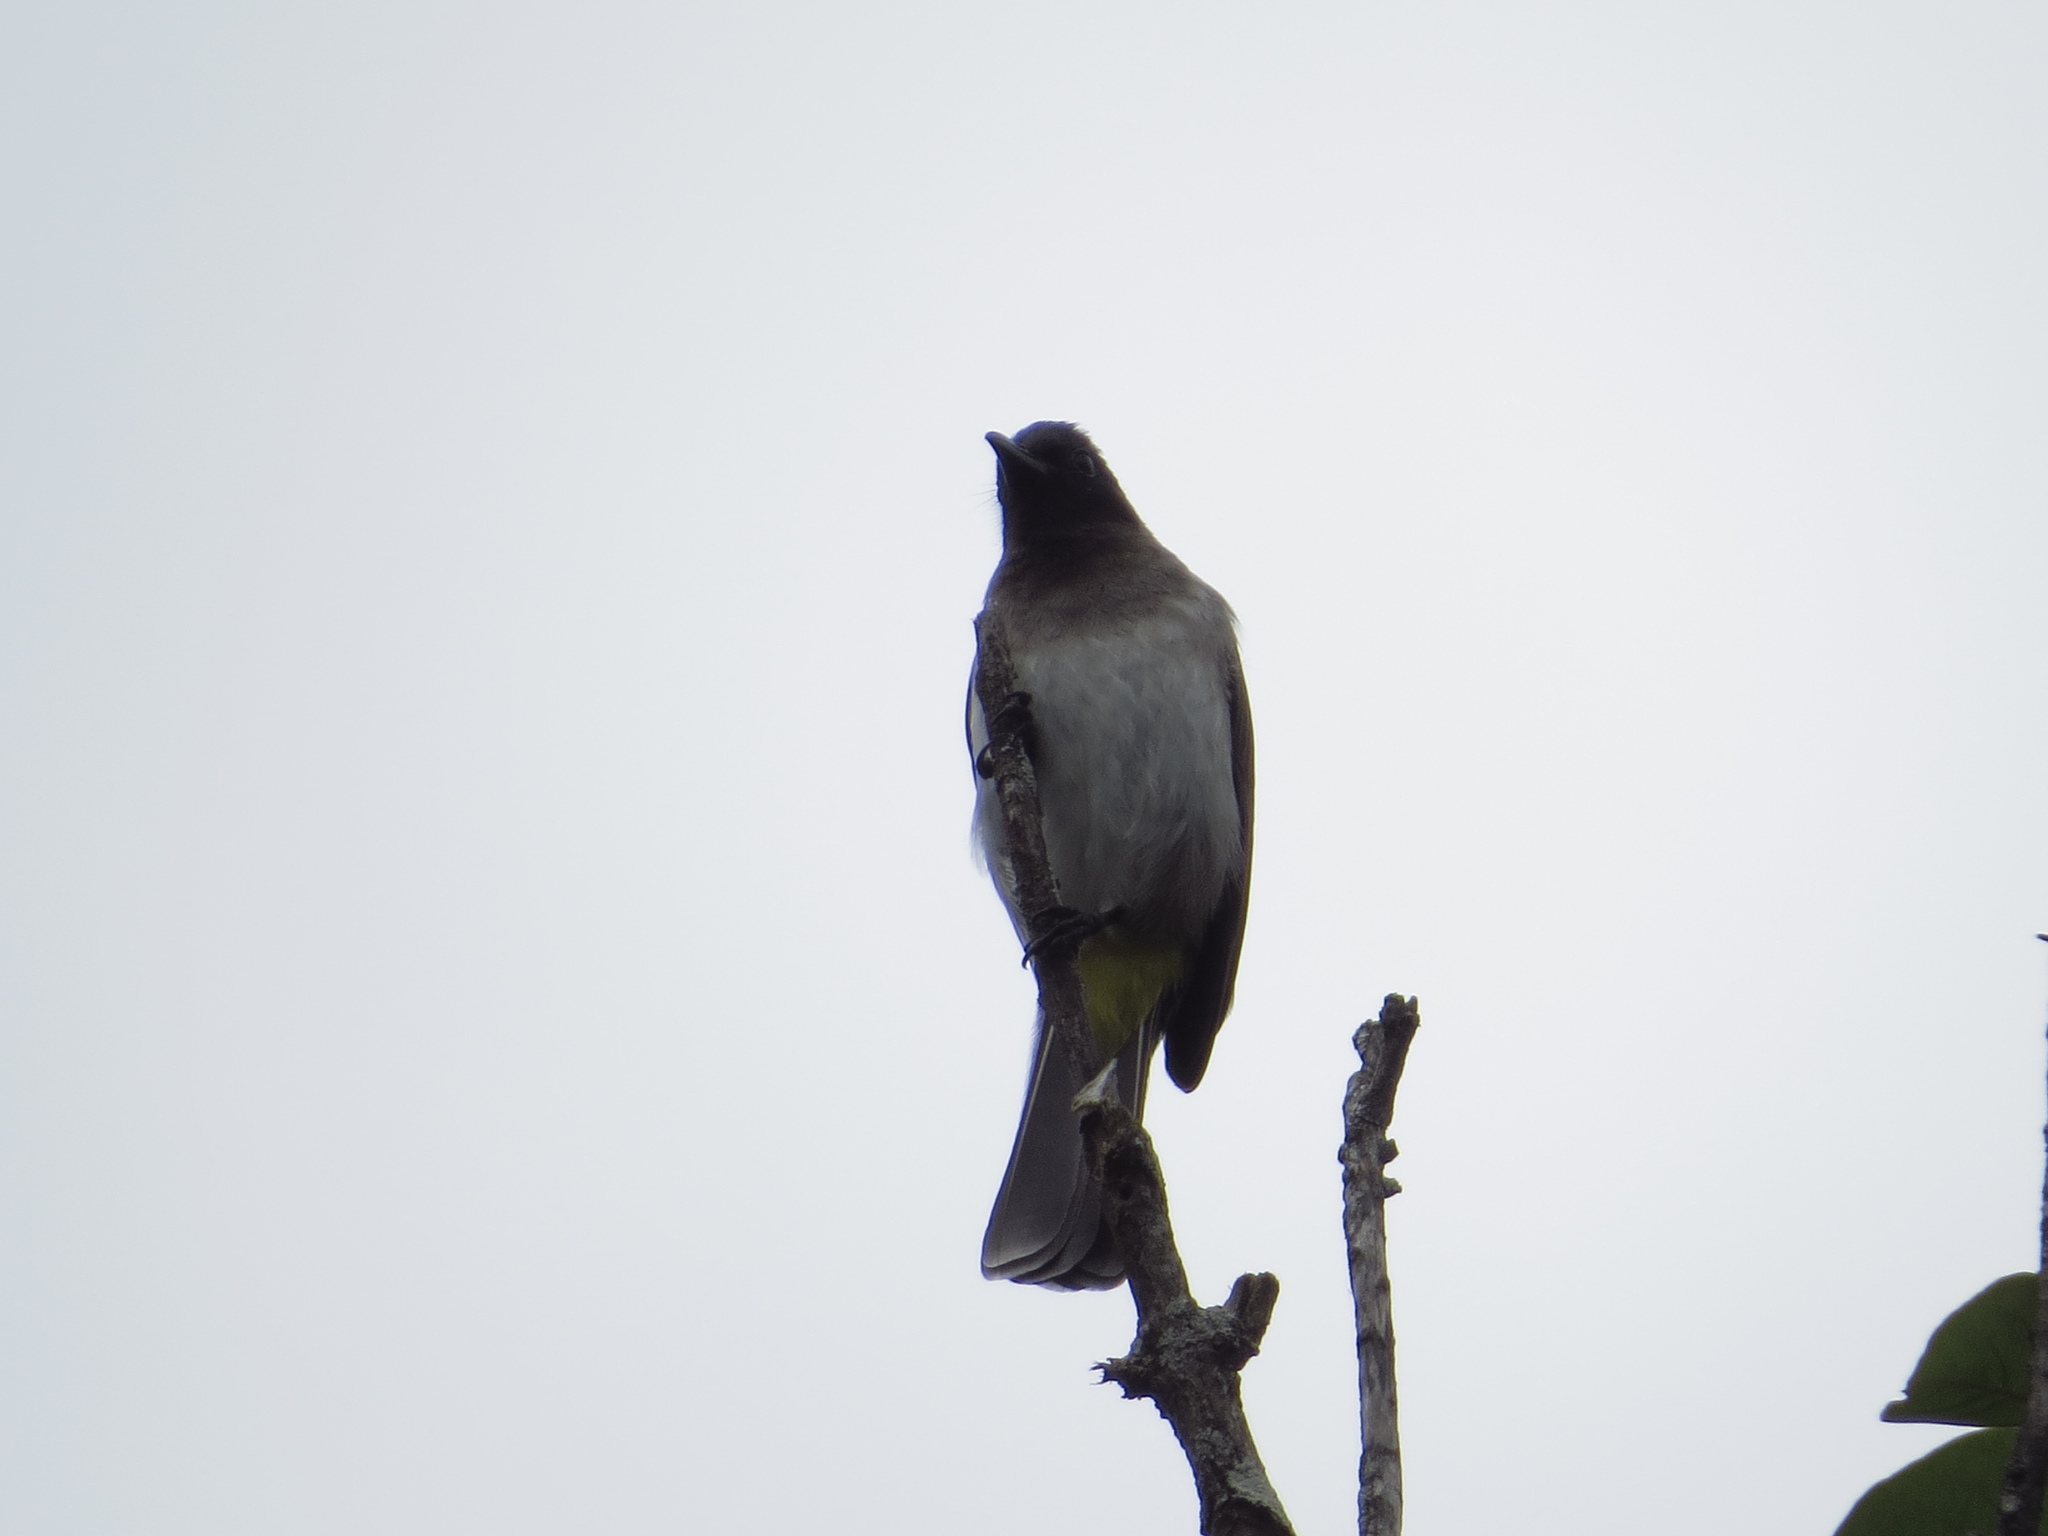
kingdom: Animalia
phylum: Chordata
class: Aves
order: Passeriformes
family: Pycnonotidae
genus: Pycnonotus
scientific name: Pycnonotus barbatus
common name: Common bulbul
